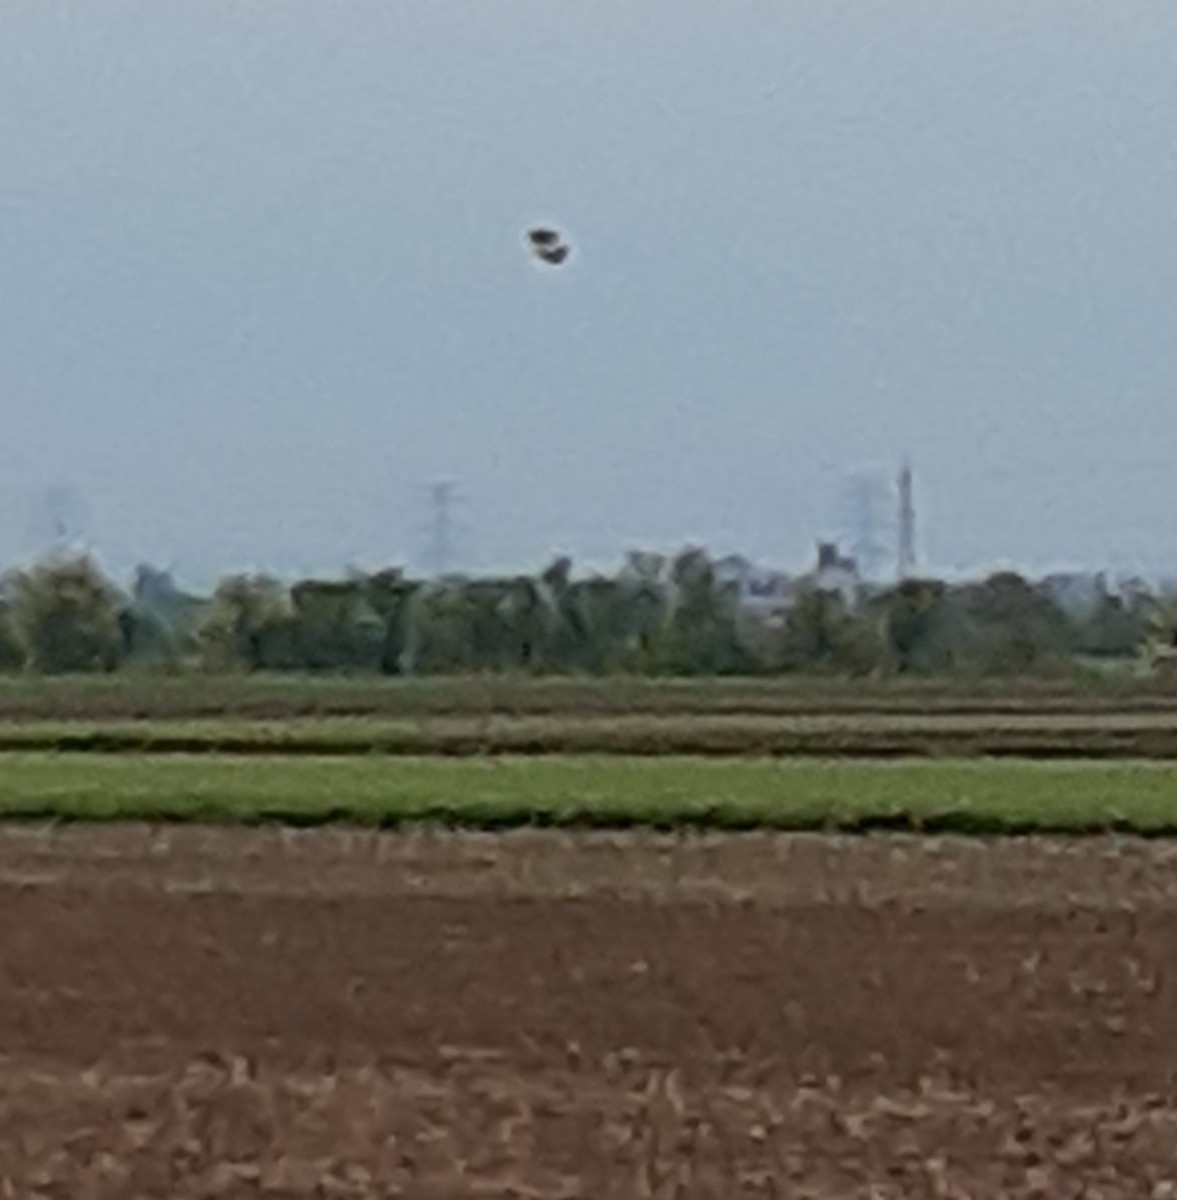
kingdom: Animalia
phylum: Chordata
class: Aves
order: Charadriiformes
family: Charadriidae
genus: Vanellus
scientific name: Vanellus vanellus
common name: Northern lapwing
